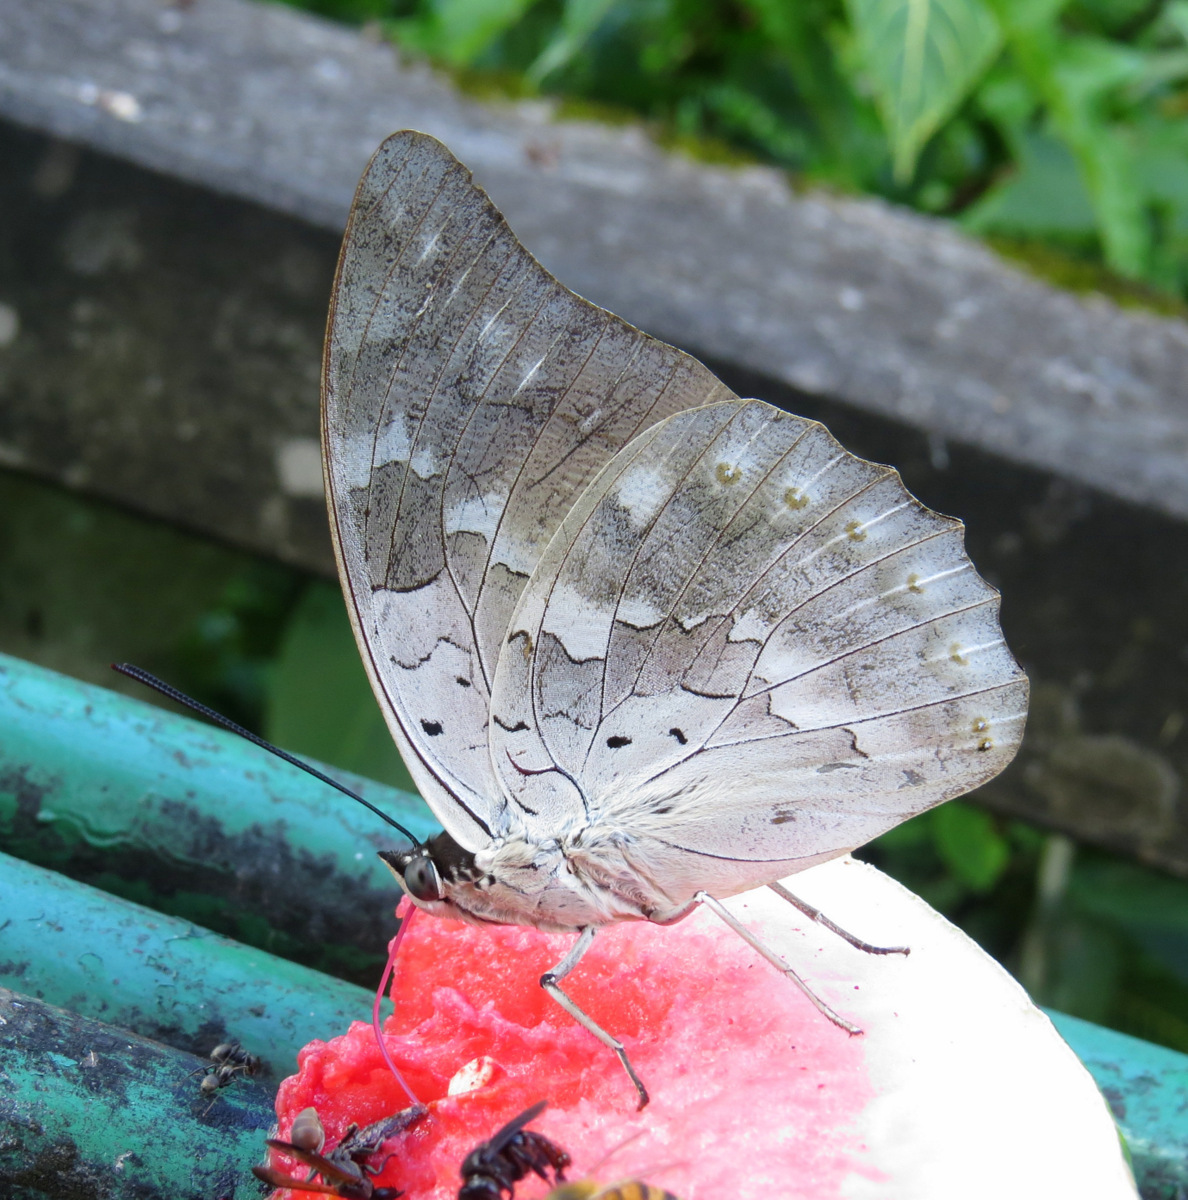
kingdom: Animalia
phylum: Arthropoda
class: Insecta
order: Lepidoptera
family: Nymphalidae
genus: Prepona
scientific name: Prepona demophoon
